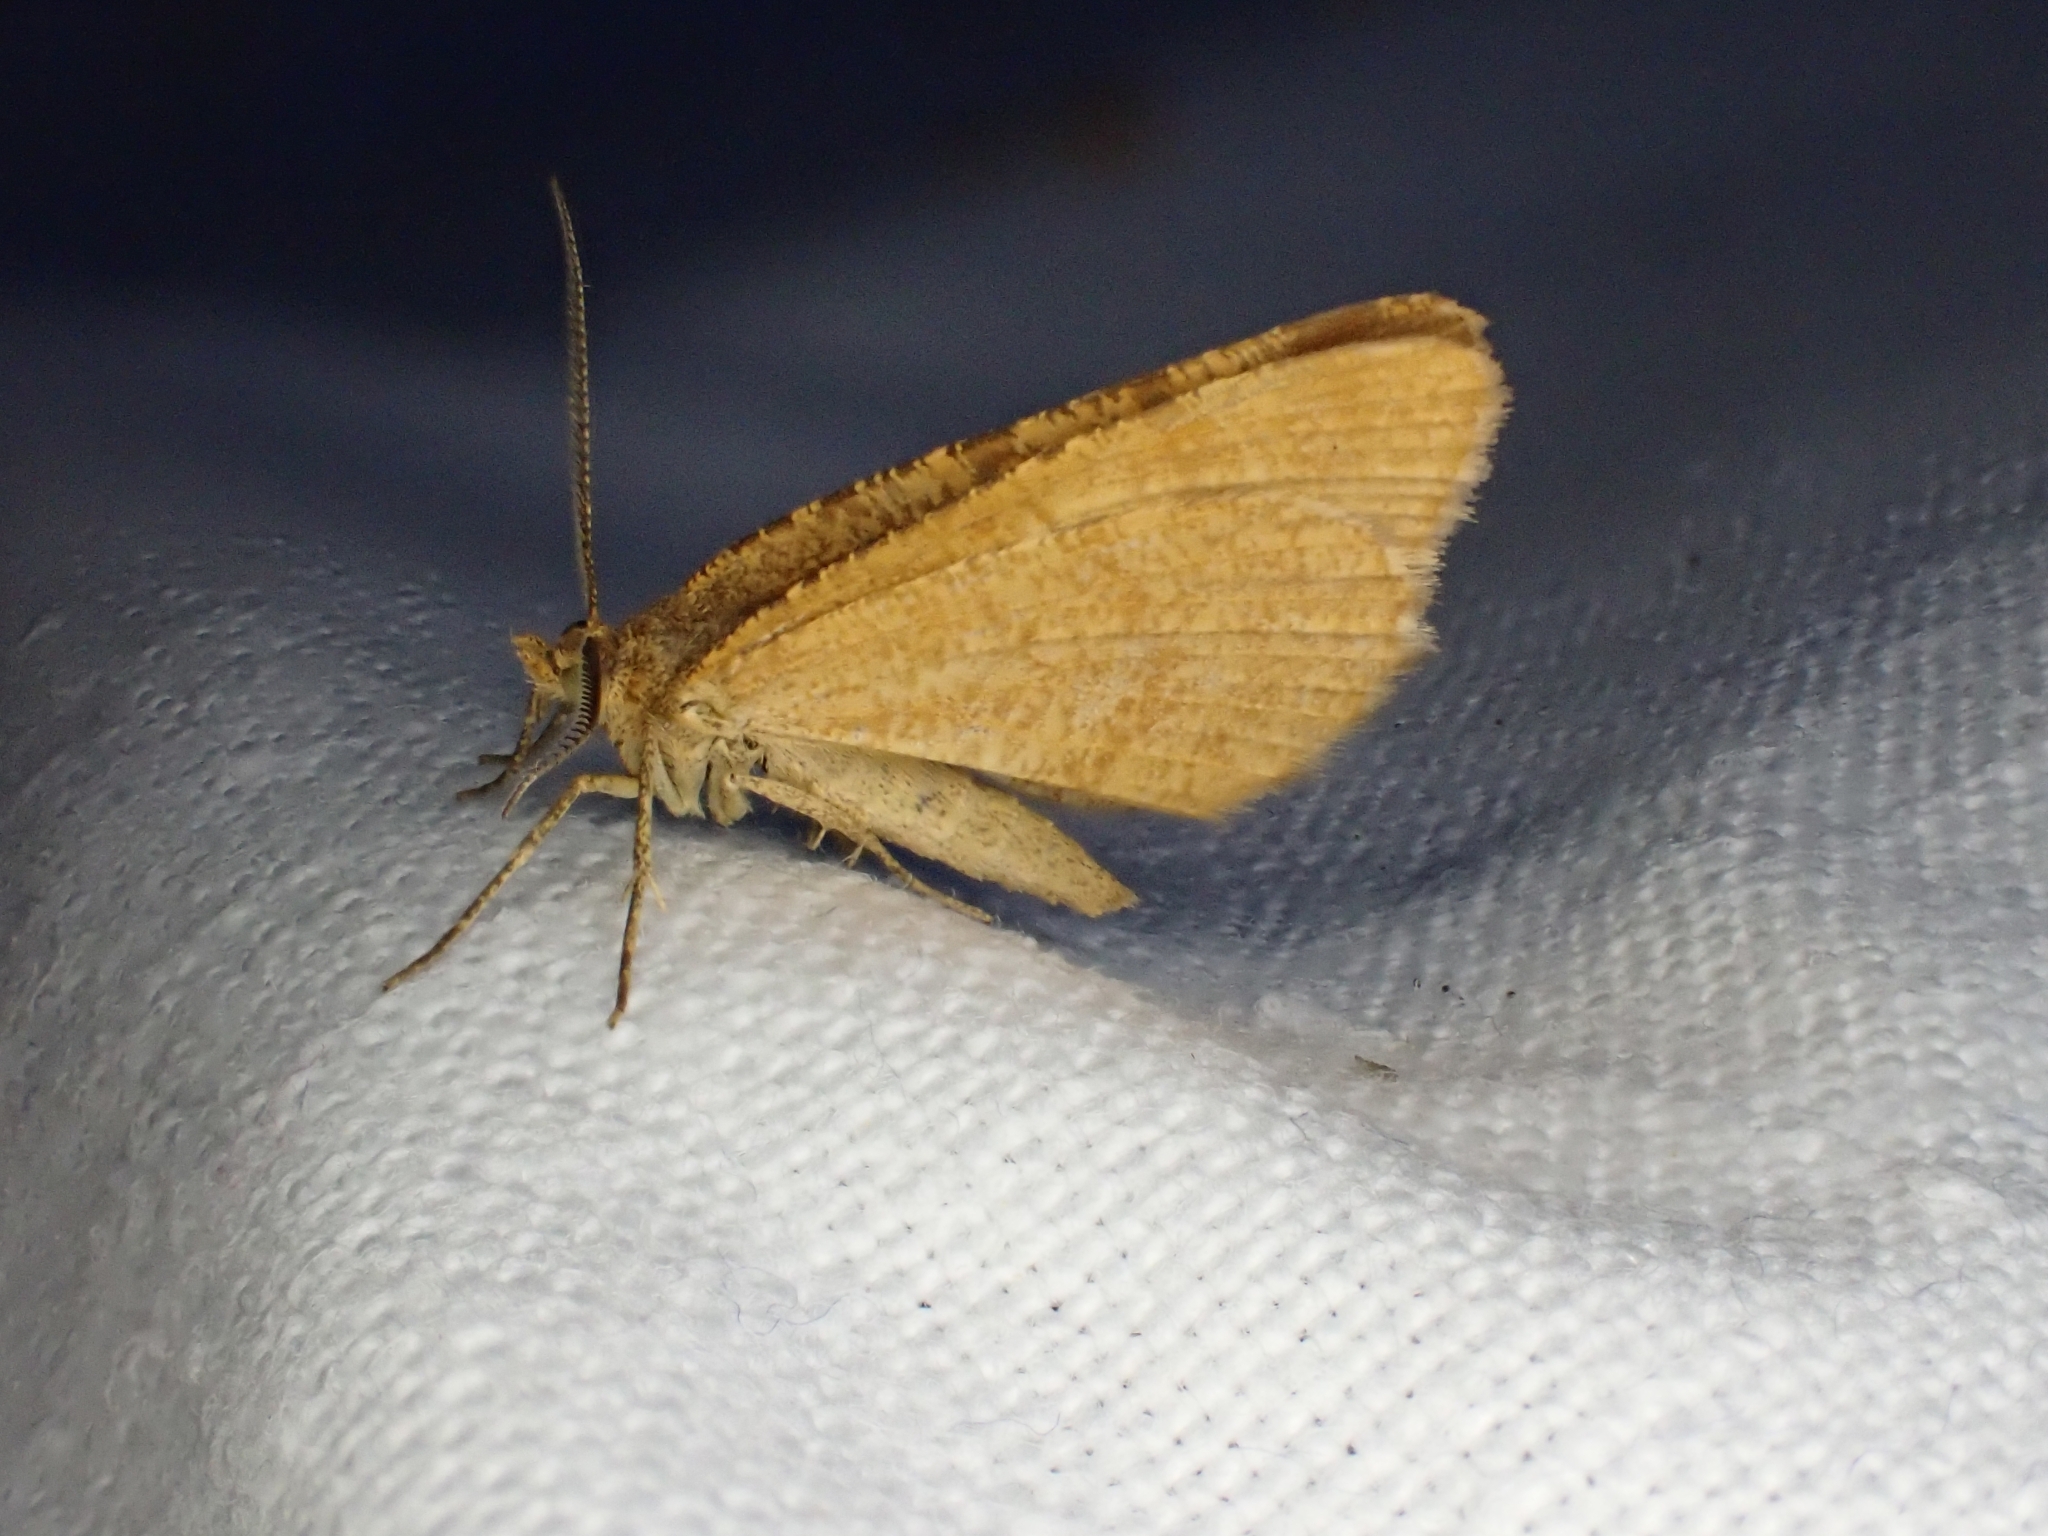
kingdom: Animalia
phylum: Arthropoda
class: Insecta
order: Lepidoptera
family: Geometridae
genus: Macaria
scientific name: Macaria brunneata
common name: Rannoch looper
